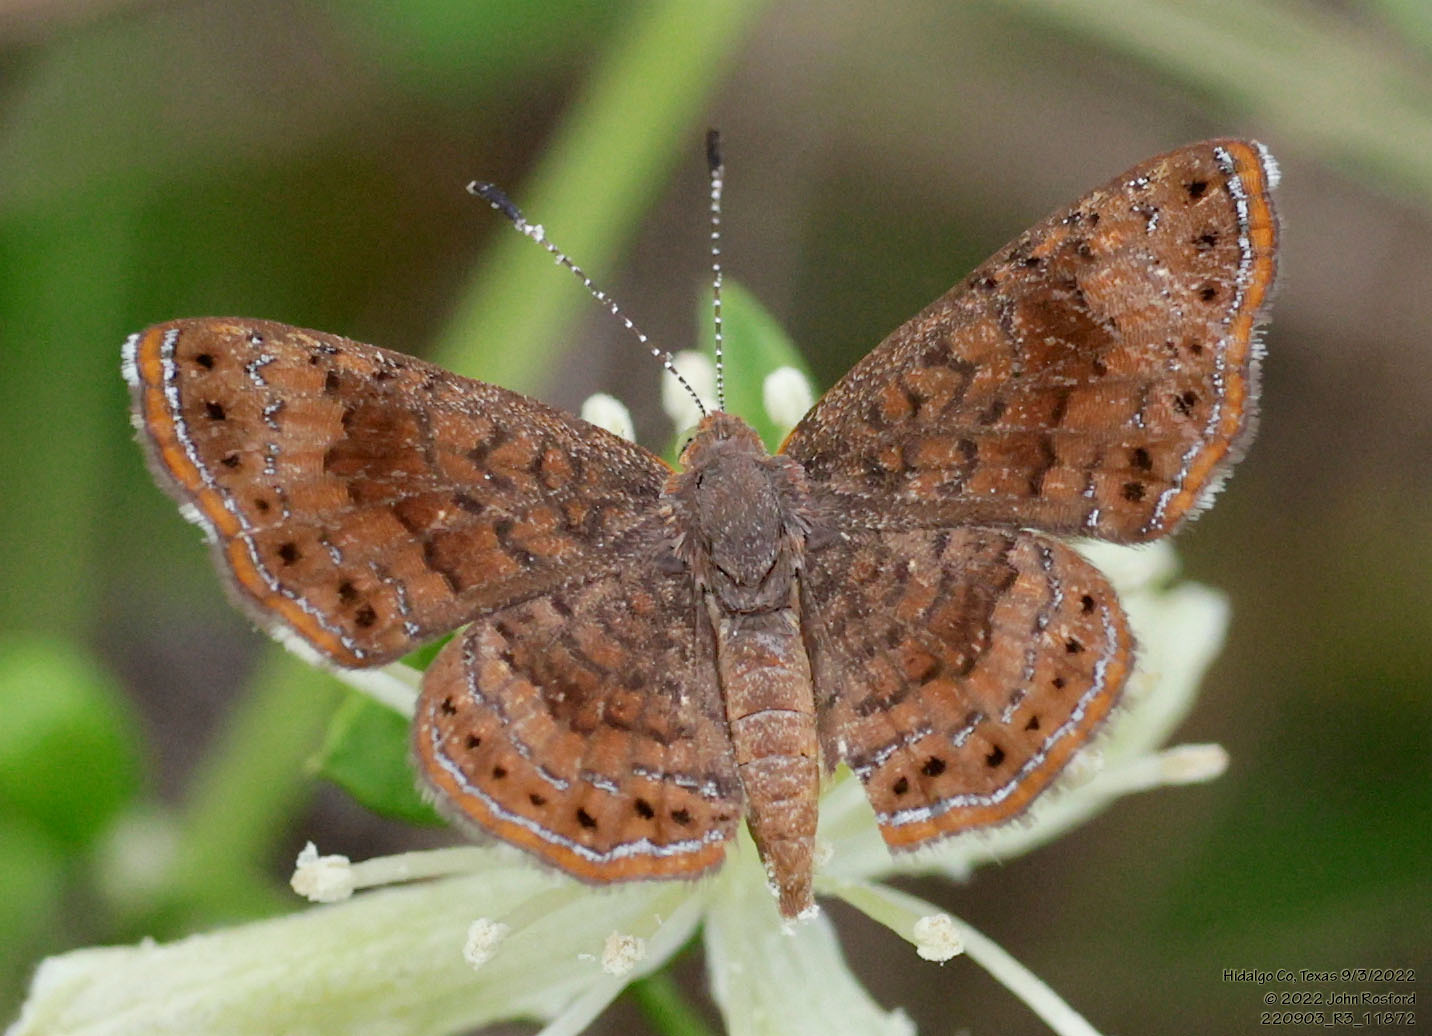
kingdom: Animalia
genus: Calephelis
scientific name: Calephelis nemesis
